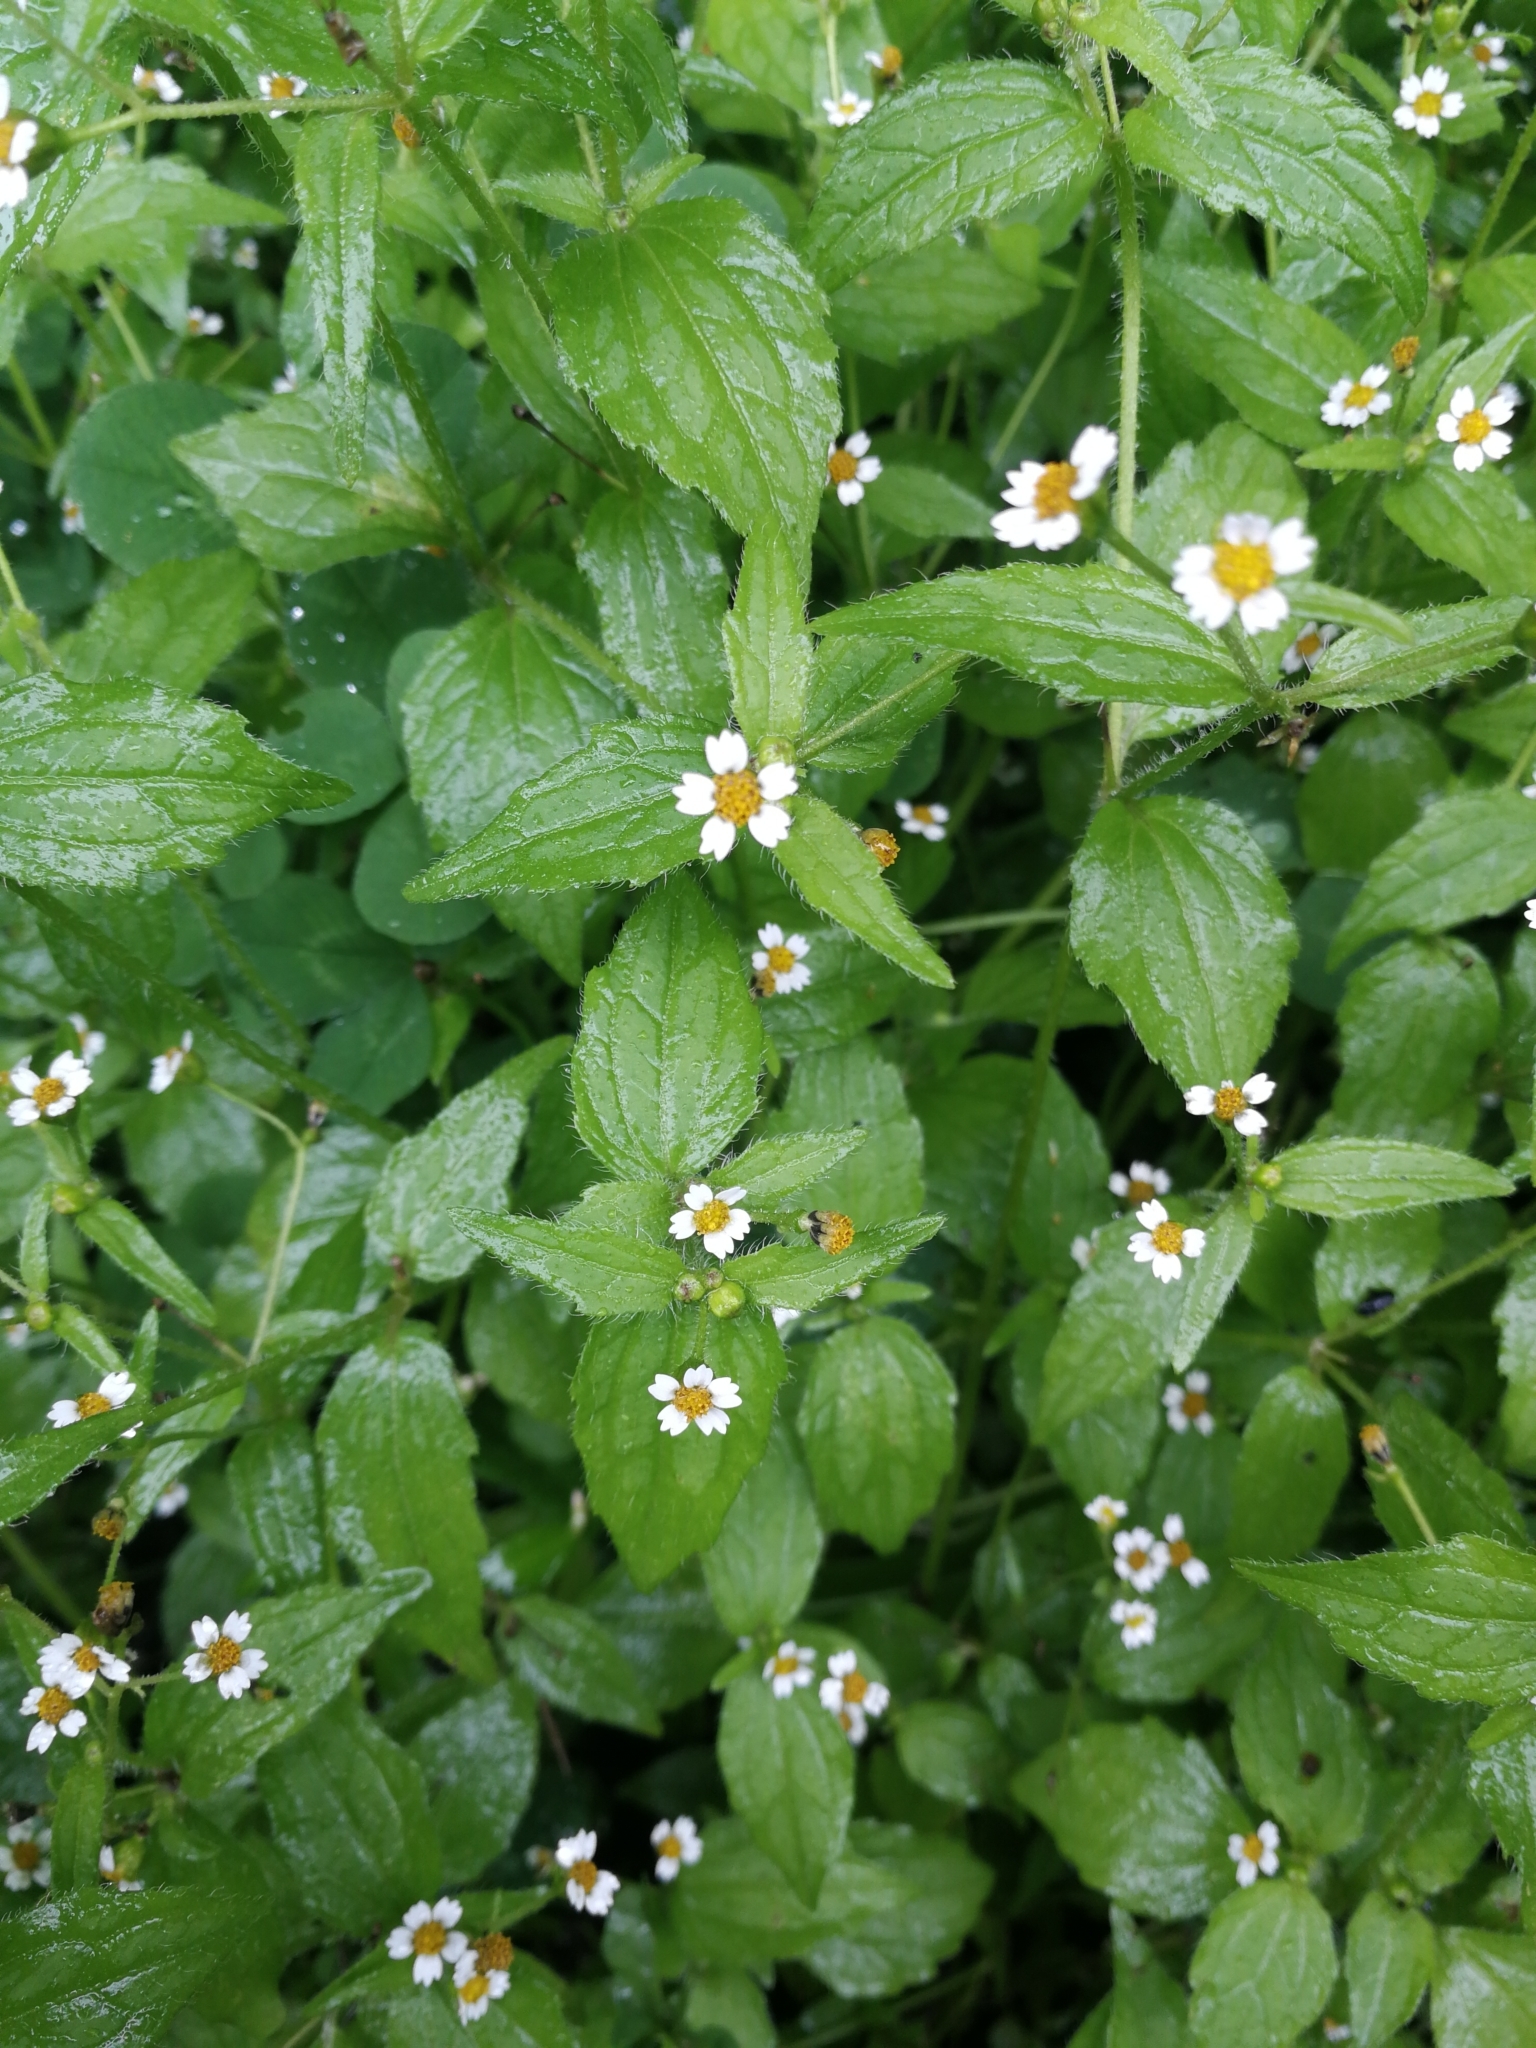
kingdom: Plantae
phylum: Tracheophyta
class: Magnoliopsida
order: Asterales
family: Asteraceae
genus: Galinsoga
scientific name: Galinsoga quadriradiata
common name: Shaggy soldier
